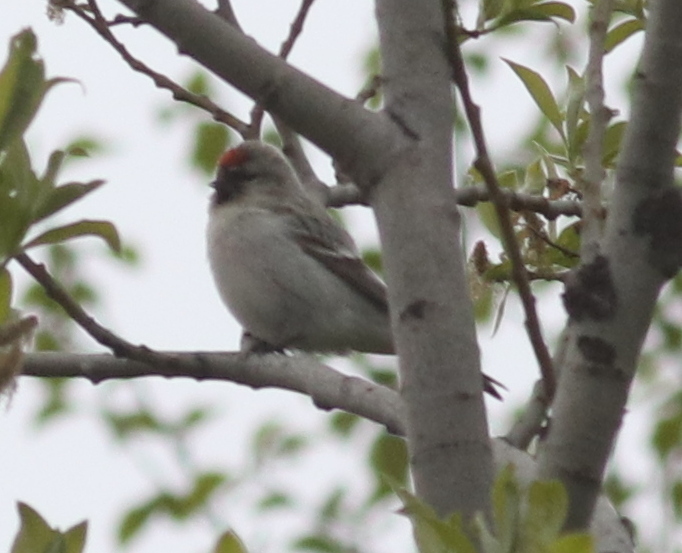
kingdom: Animalia
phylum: Chordata
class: Aves
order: Passeriformes
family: Fringillidae
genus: Acanthis
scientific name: Acanthis hornemanni
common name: Arctic redpoll
